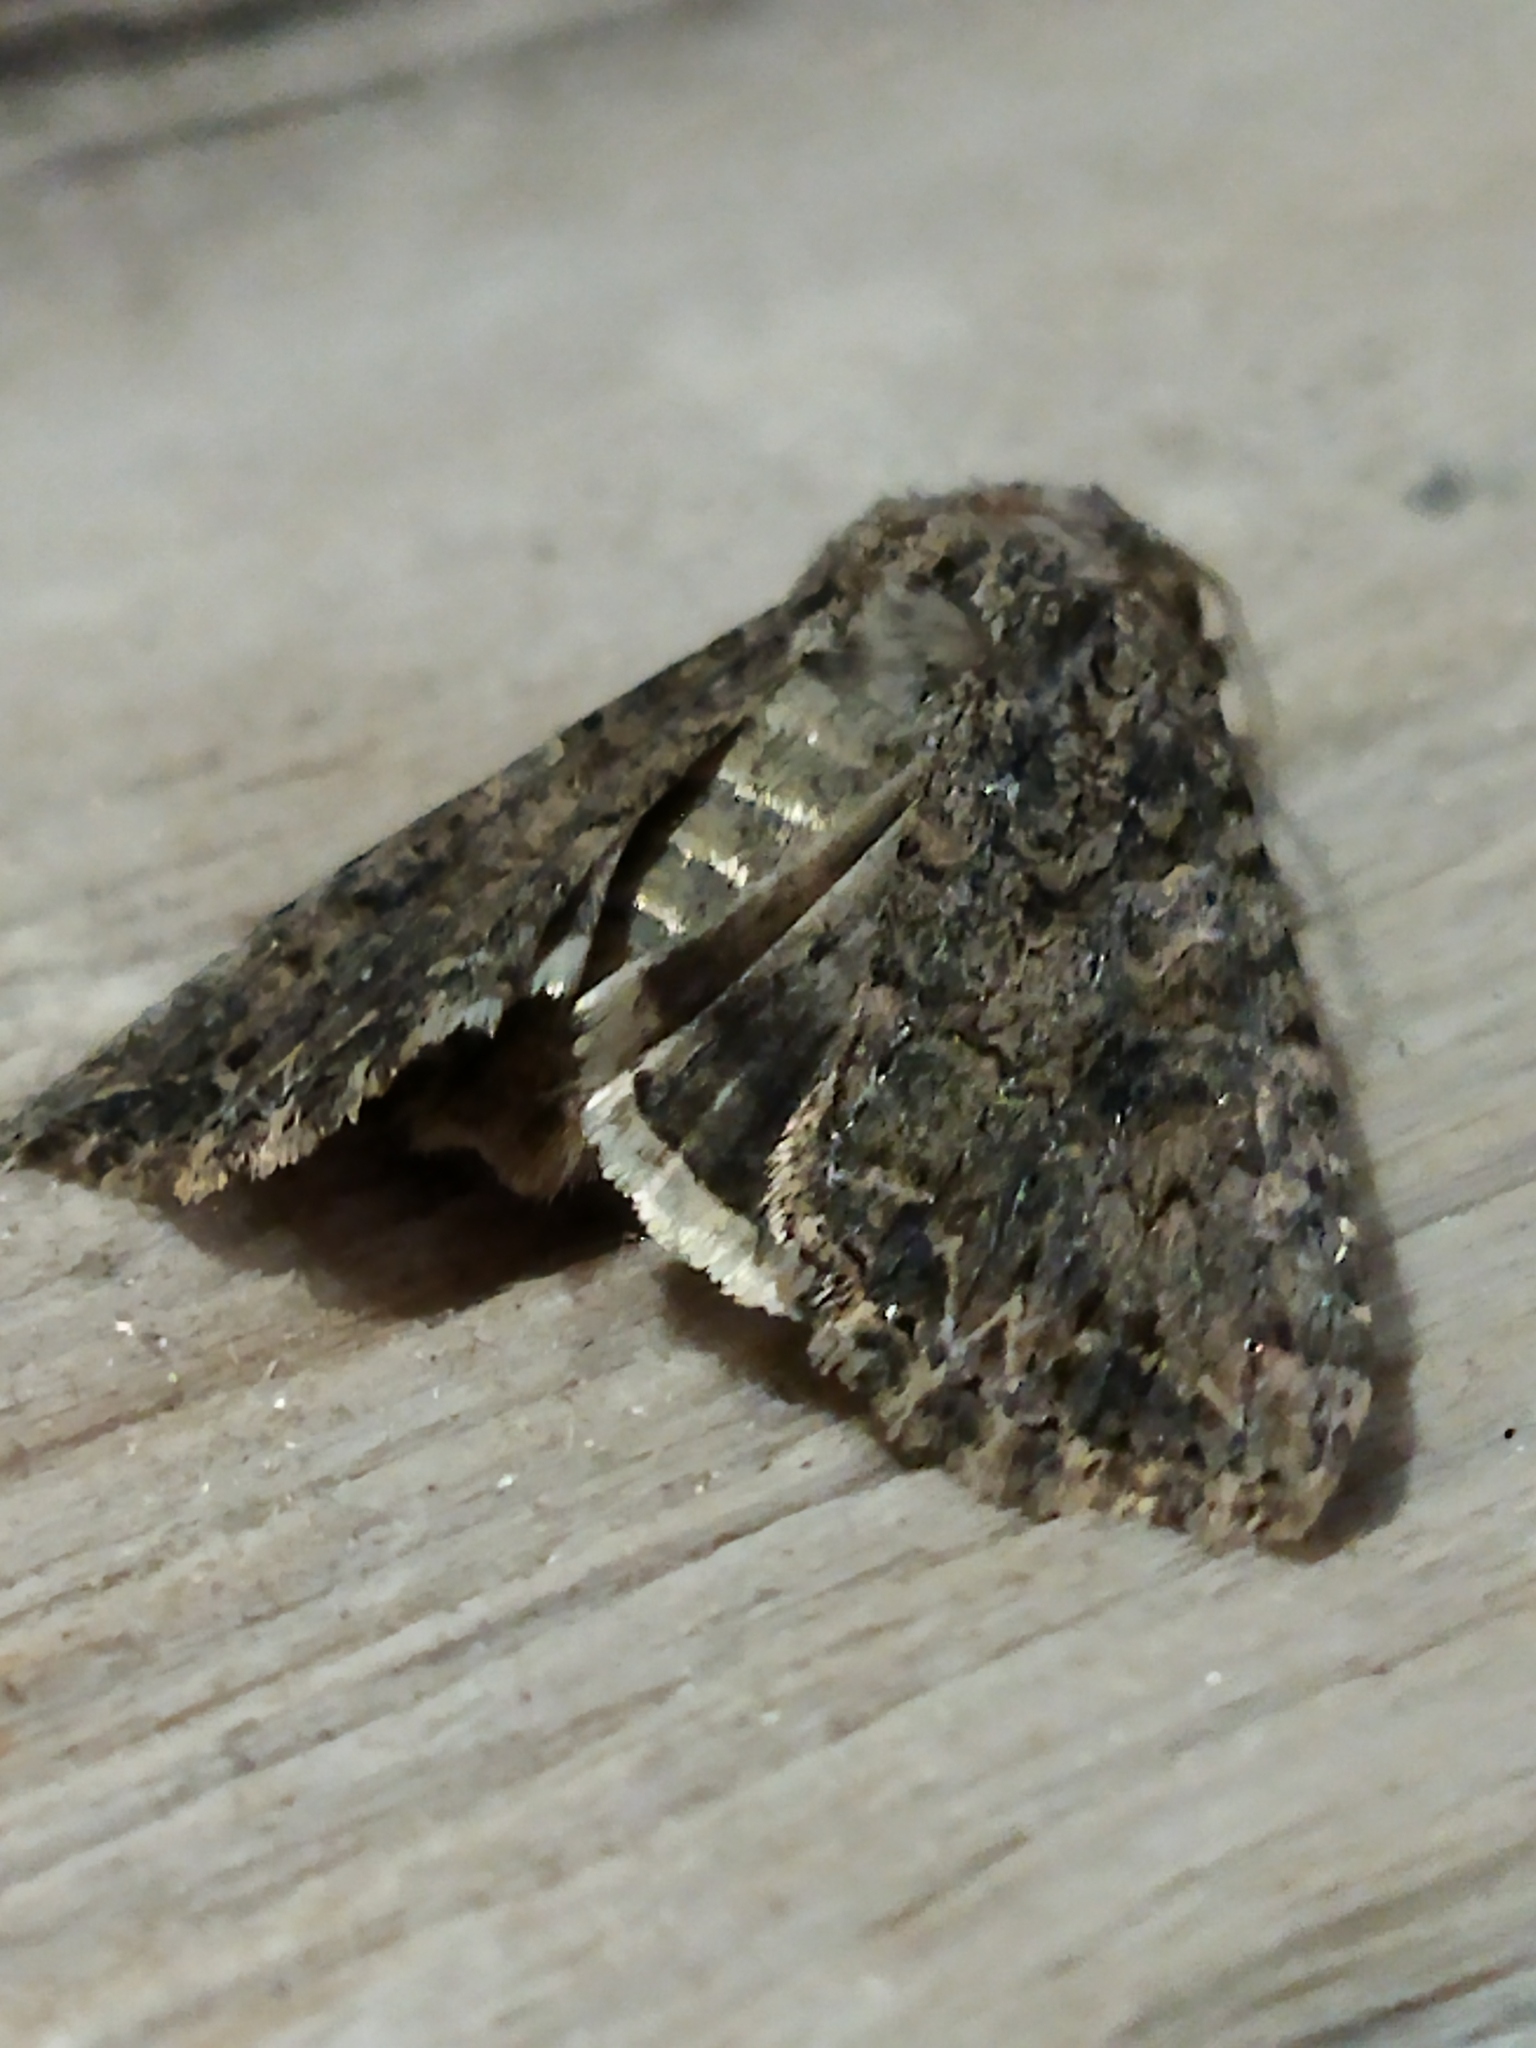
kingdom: Animalia
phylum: Arthropoda
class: Insecta
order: Lepidoptera
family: Noctuidae
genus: Anarta
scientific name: Anarta trifolii
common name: Clover cutworm moth
